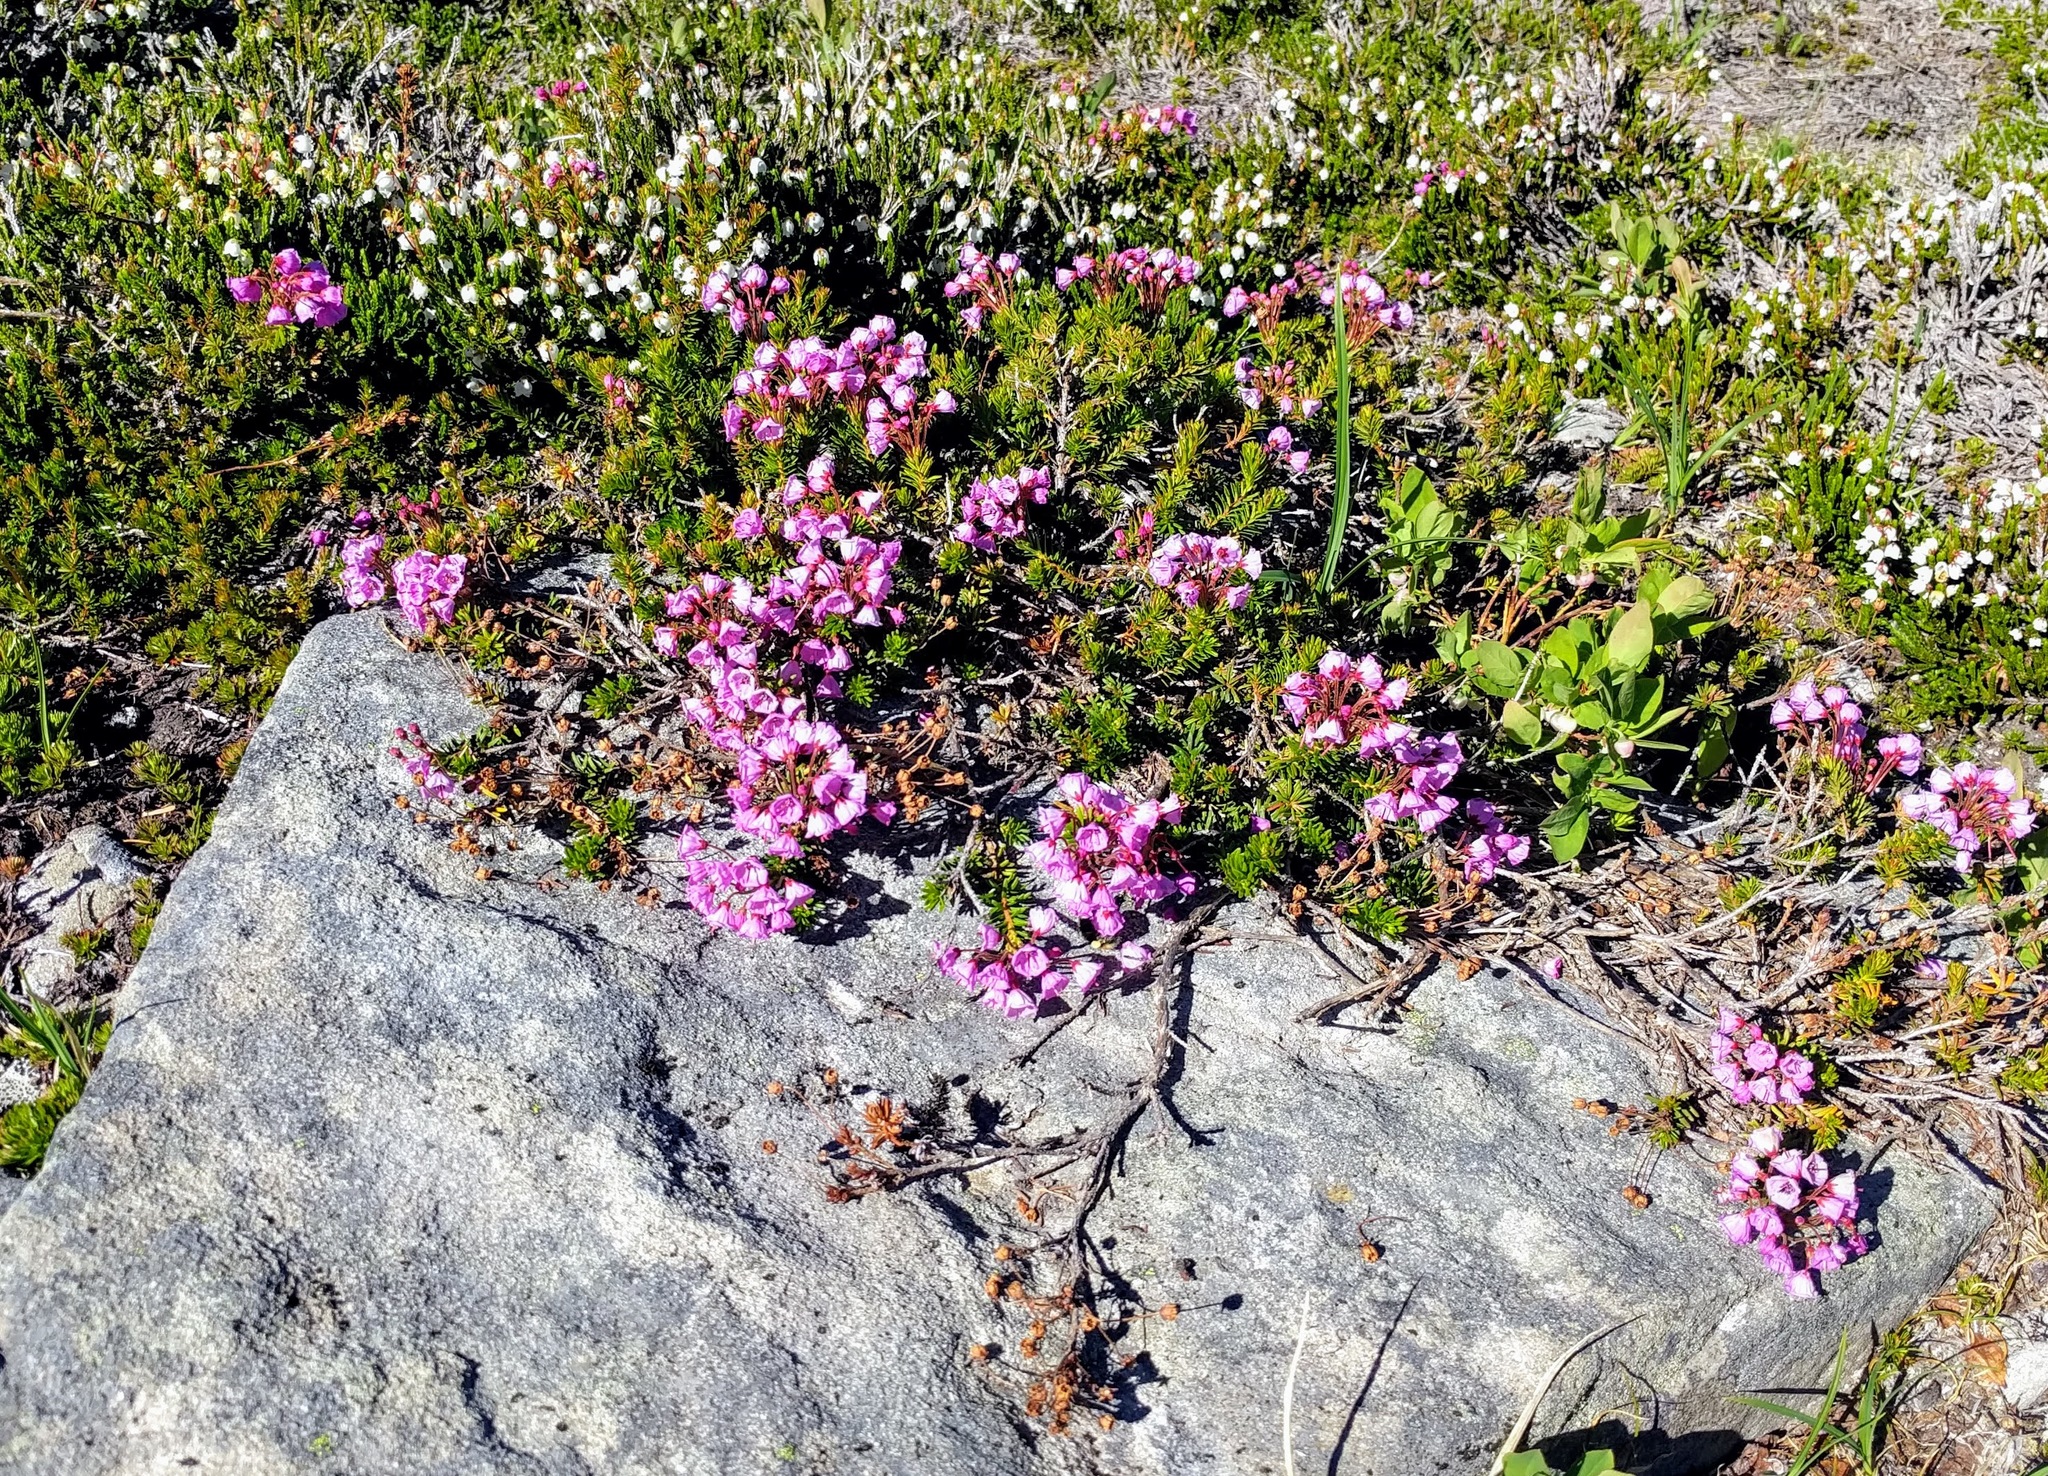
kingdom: Plantae
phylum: Tracheophyta
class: Magnoliopsida
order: Ericales
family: Ericaceae
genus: Phyllodoce
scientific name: Phyllodoce empetriformis
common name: Pink mountain heather
